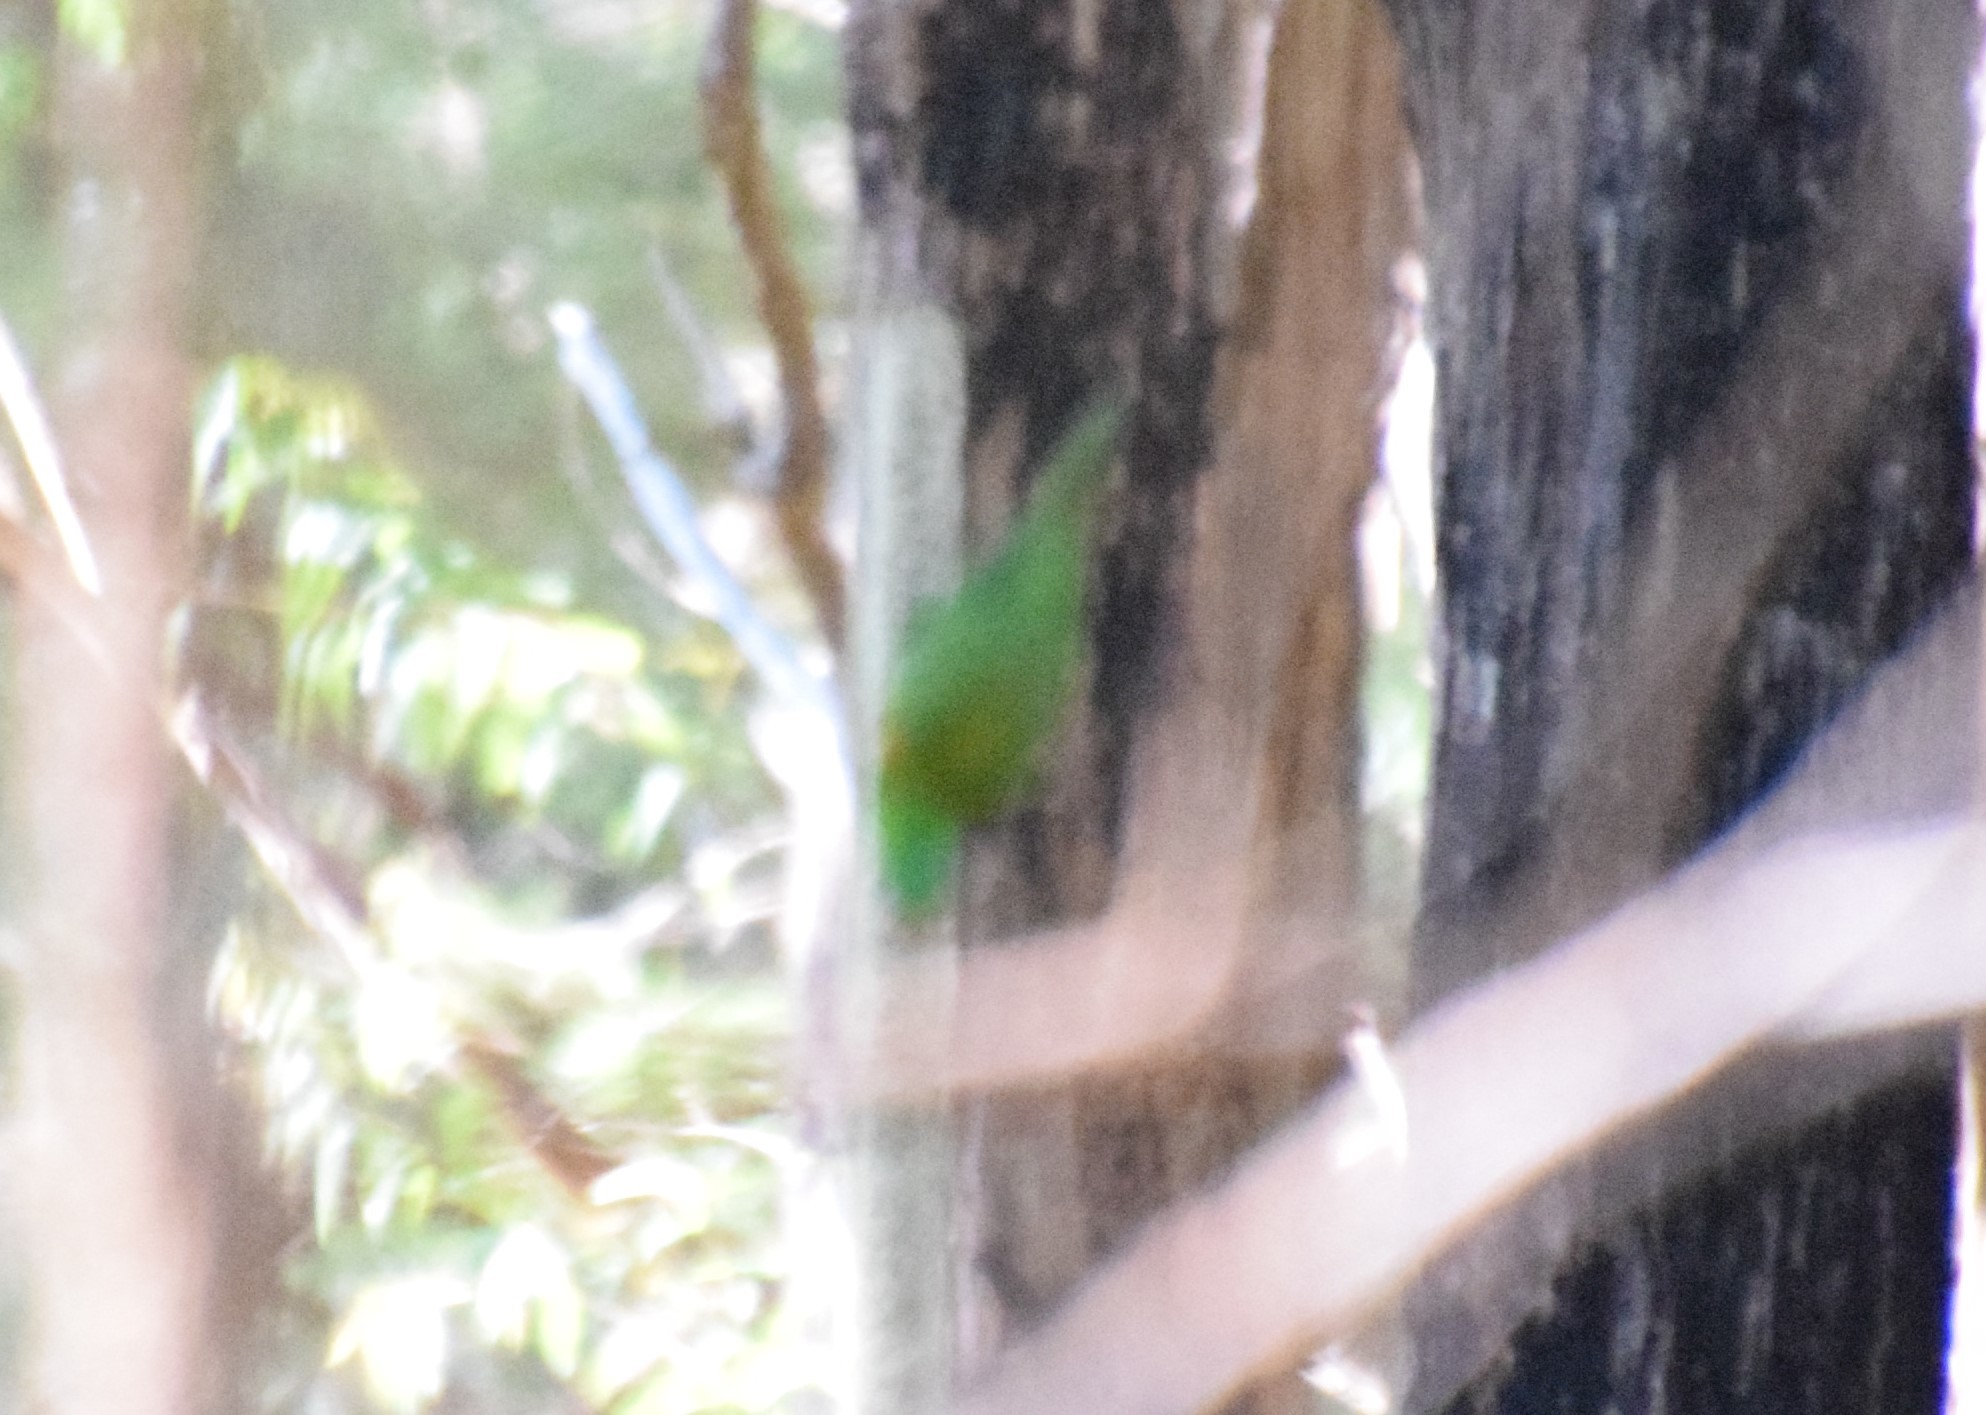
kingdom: Animalia
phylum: Chordata
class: Aves
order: Psittaciformes
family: Psittacidae
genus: Trichoglossus
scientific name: Trichoglossus chlorolepidotus
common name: Scaly-breasted lorikeet
